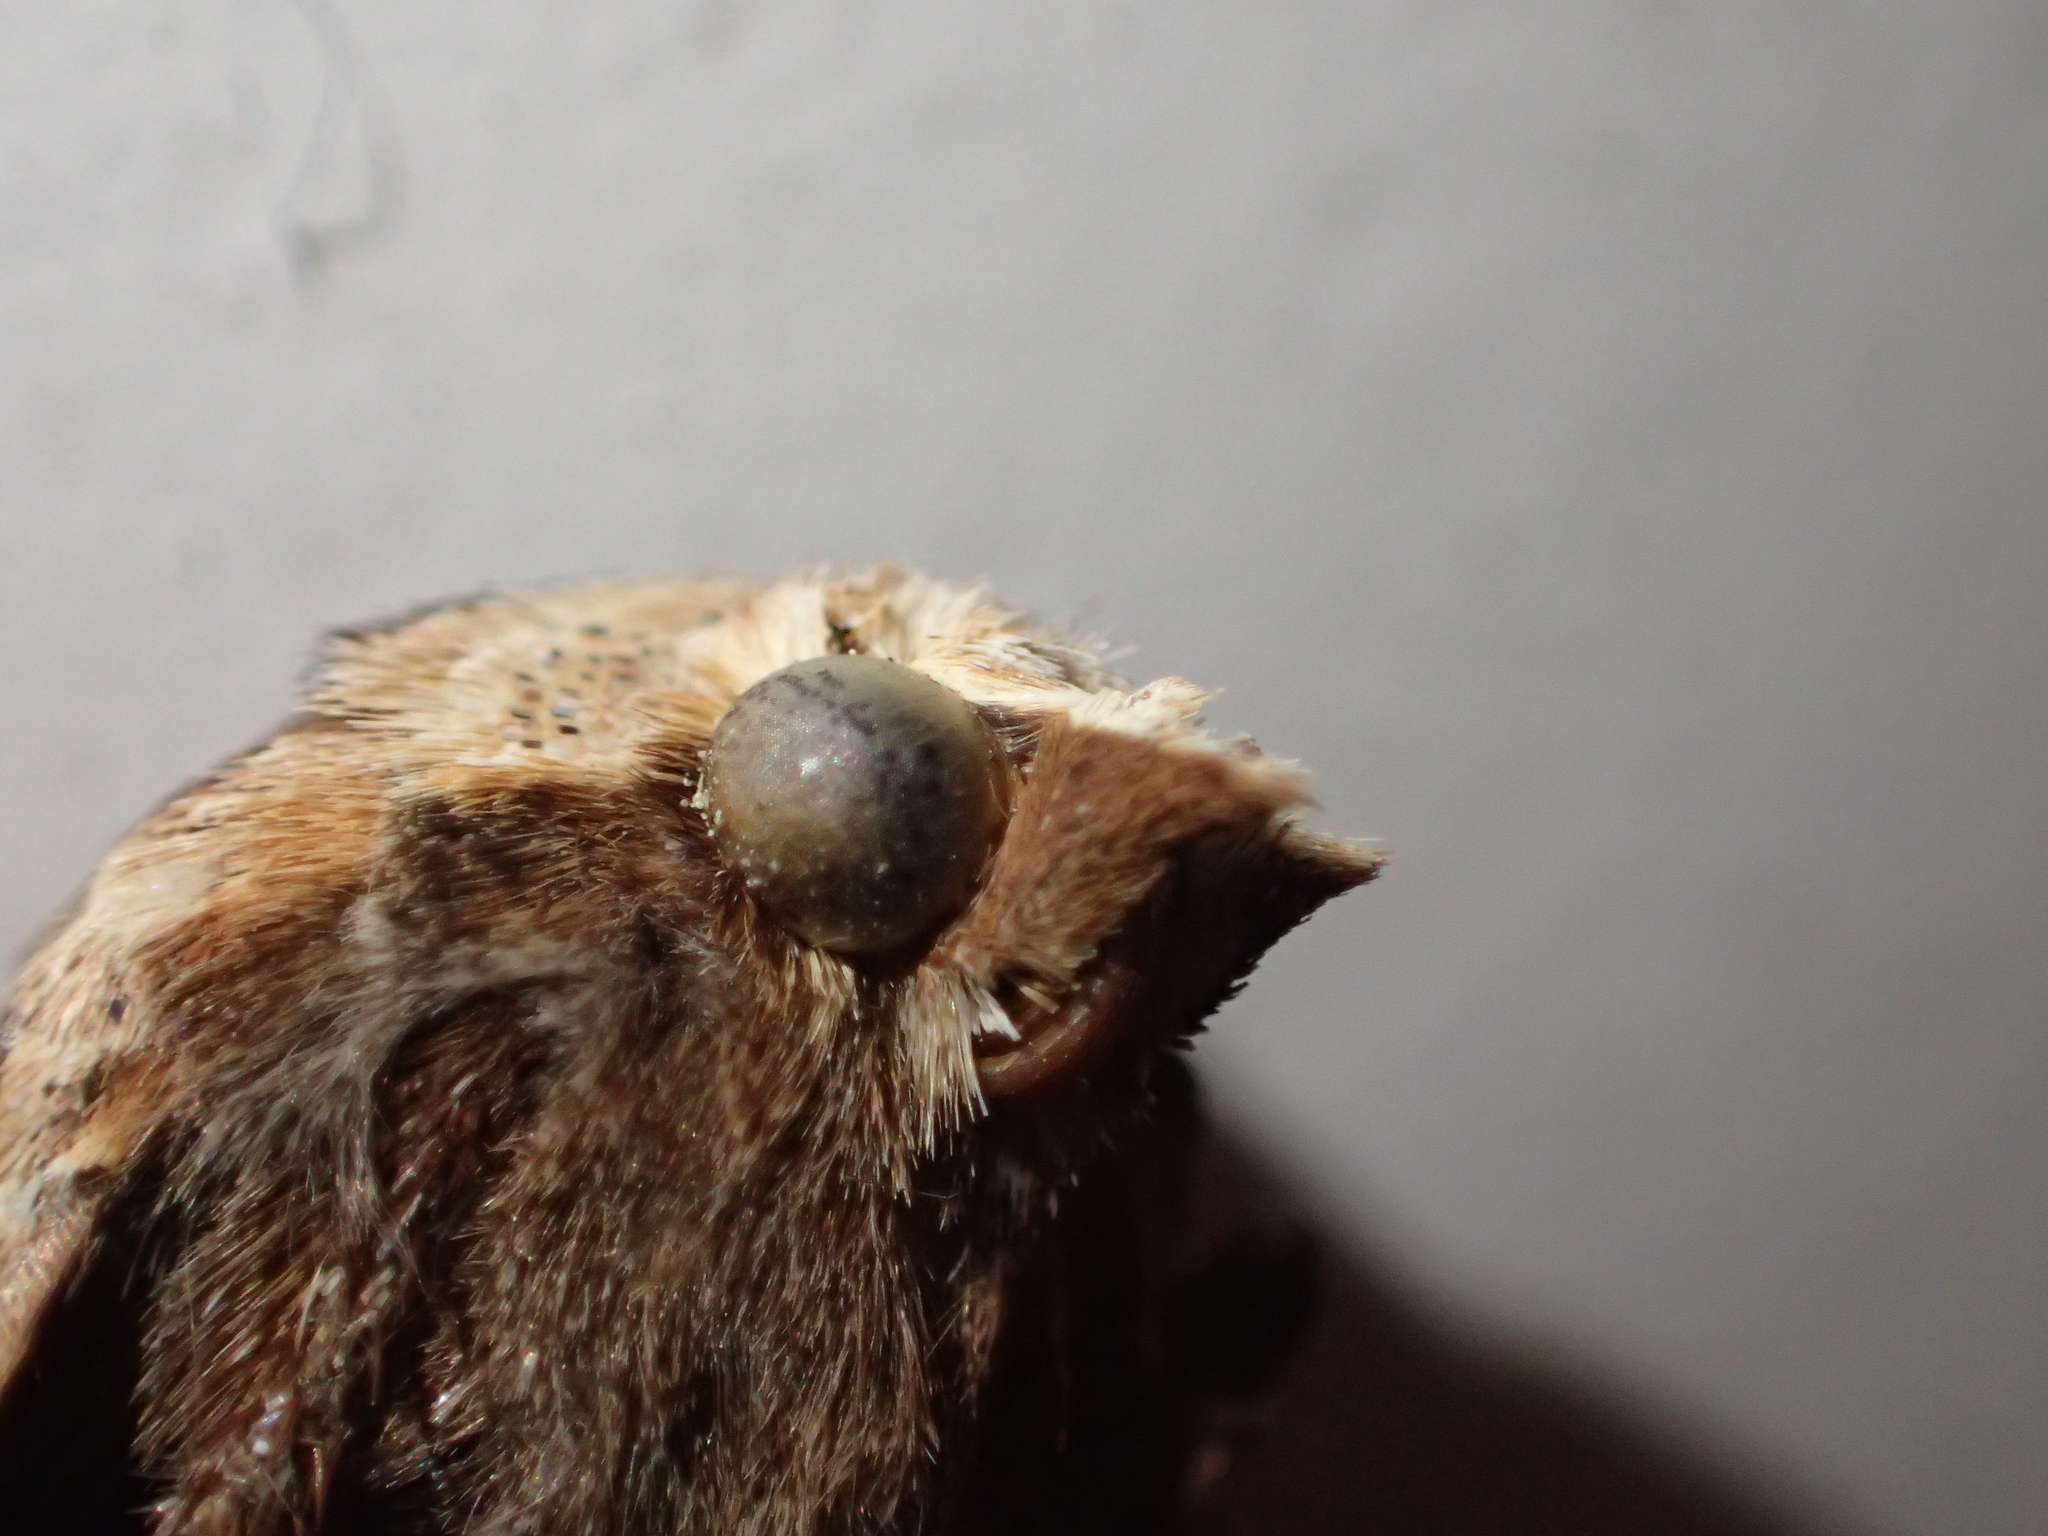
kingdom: Animalia
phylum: Arthropoda
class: Insecta
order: Lepidoptera
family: Noctuidae
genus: Noctua
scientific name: Noctua pronuba
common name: Large yellow underwing
